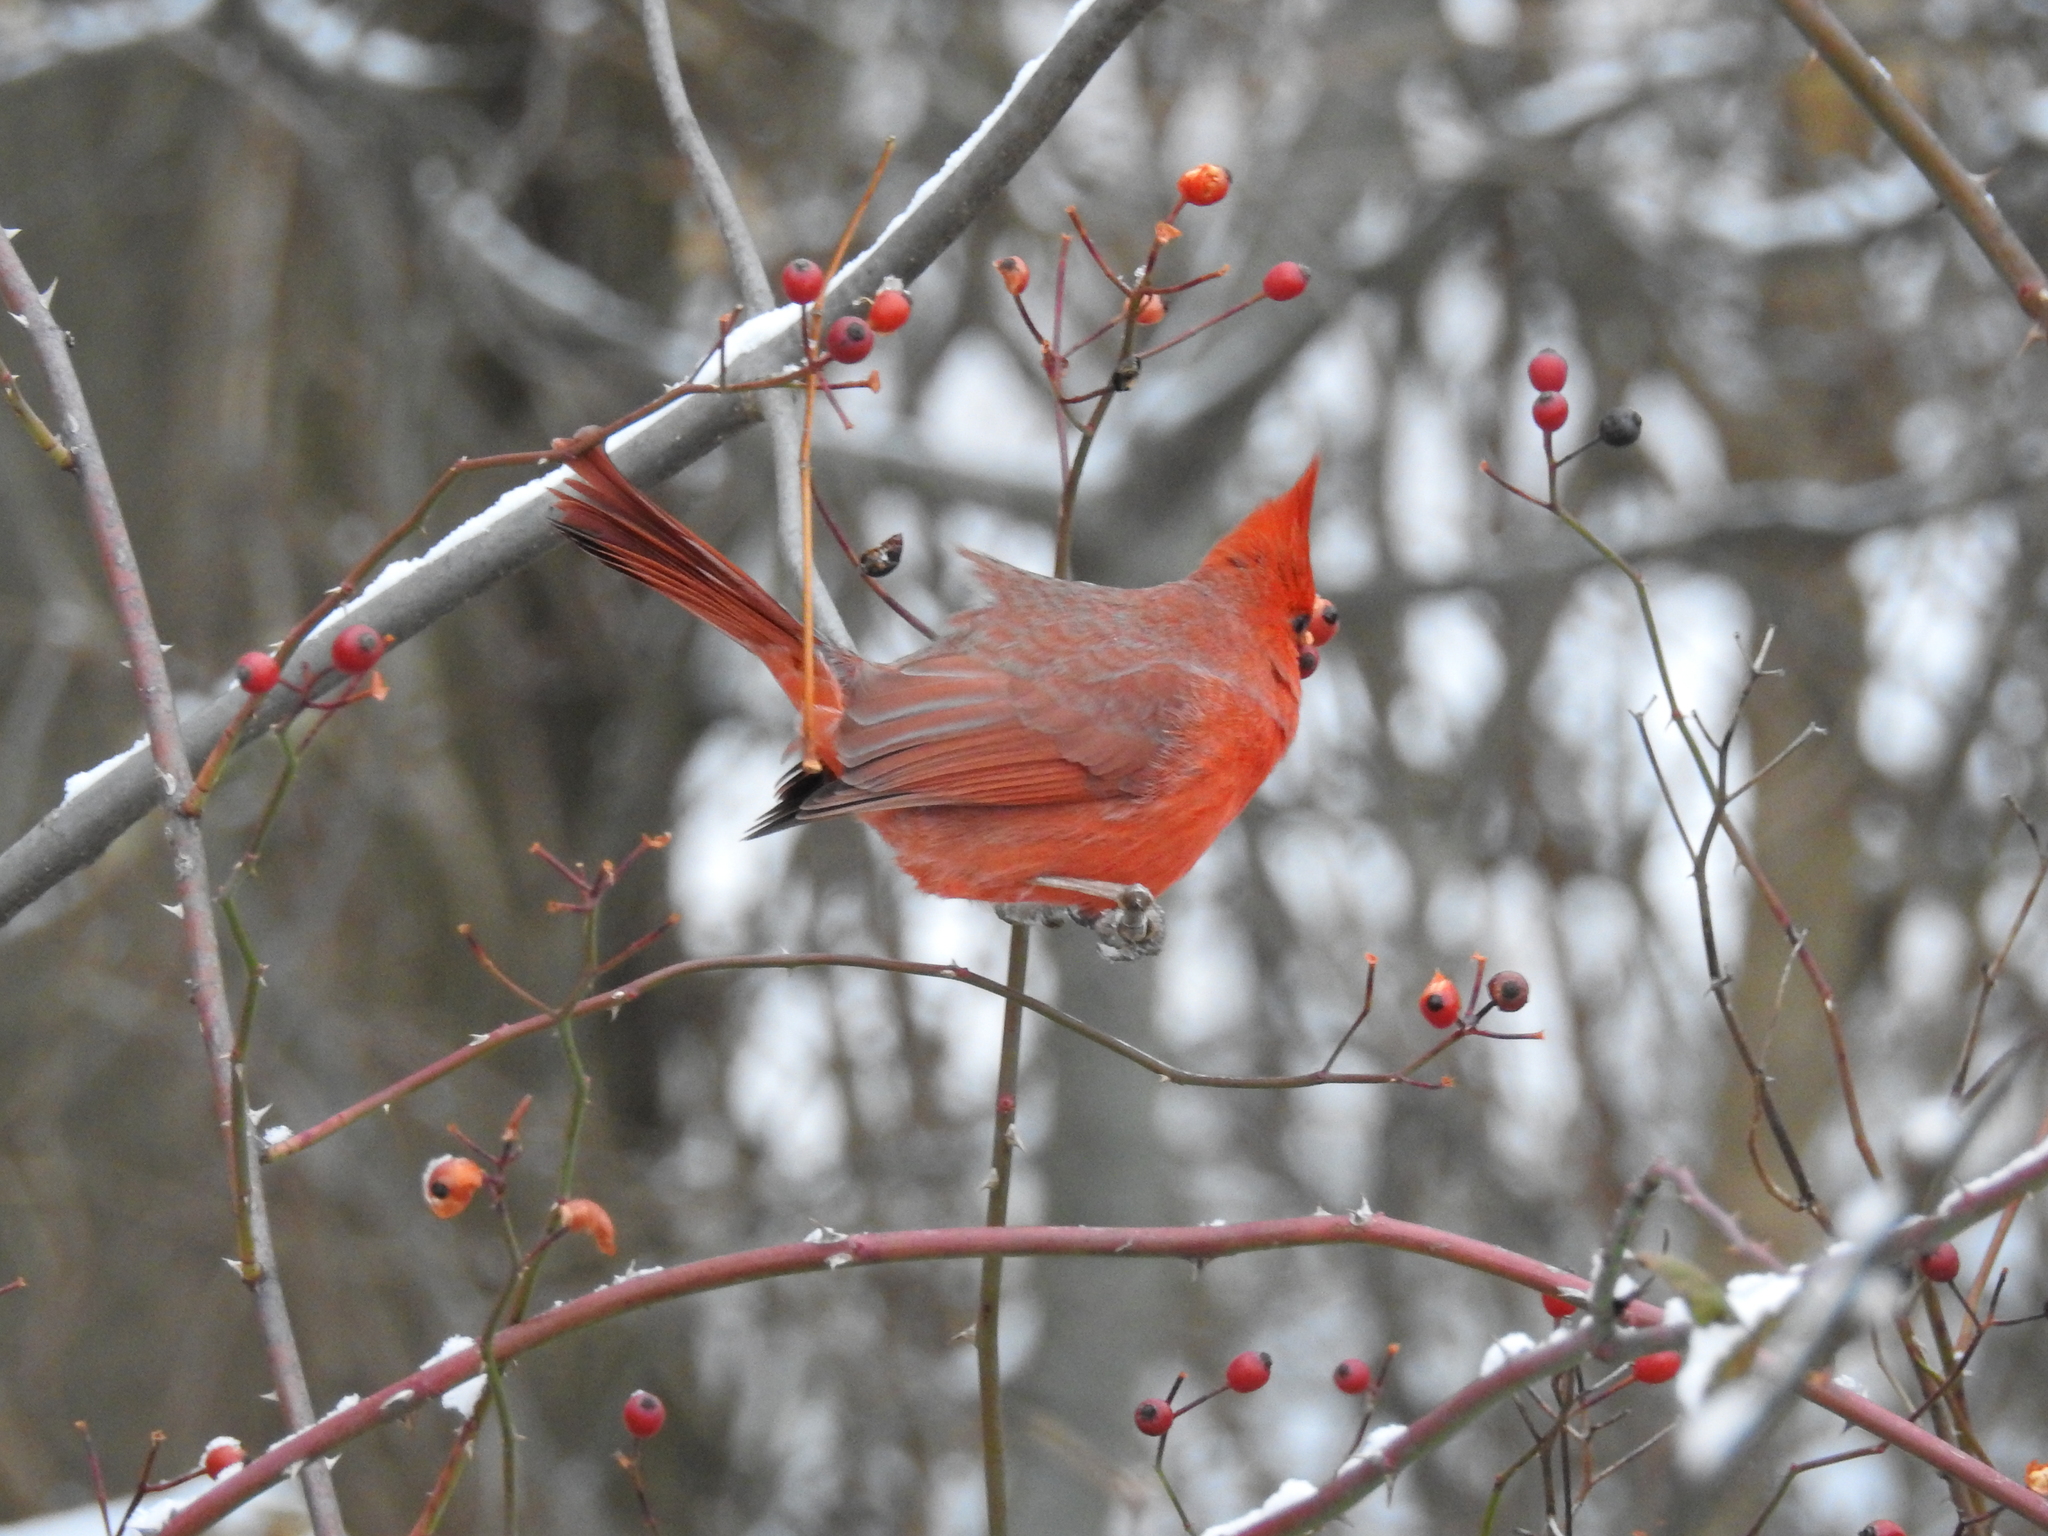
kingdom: Animalia
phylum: Chordata
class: Aves
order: Passeriformes
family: Cardinalidae
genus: Cardinalis
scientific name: Cardinalis cardinalis
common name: Northern cardinal
